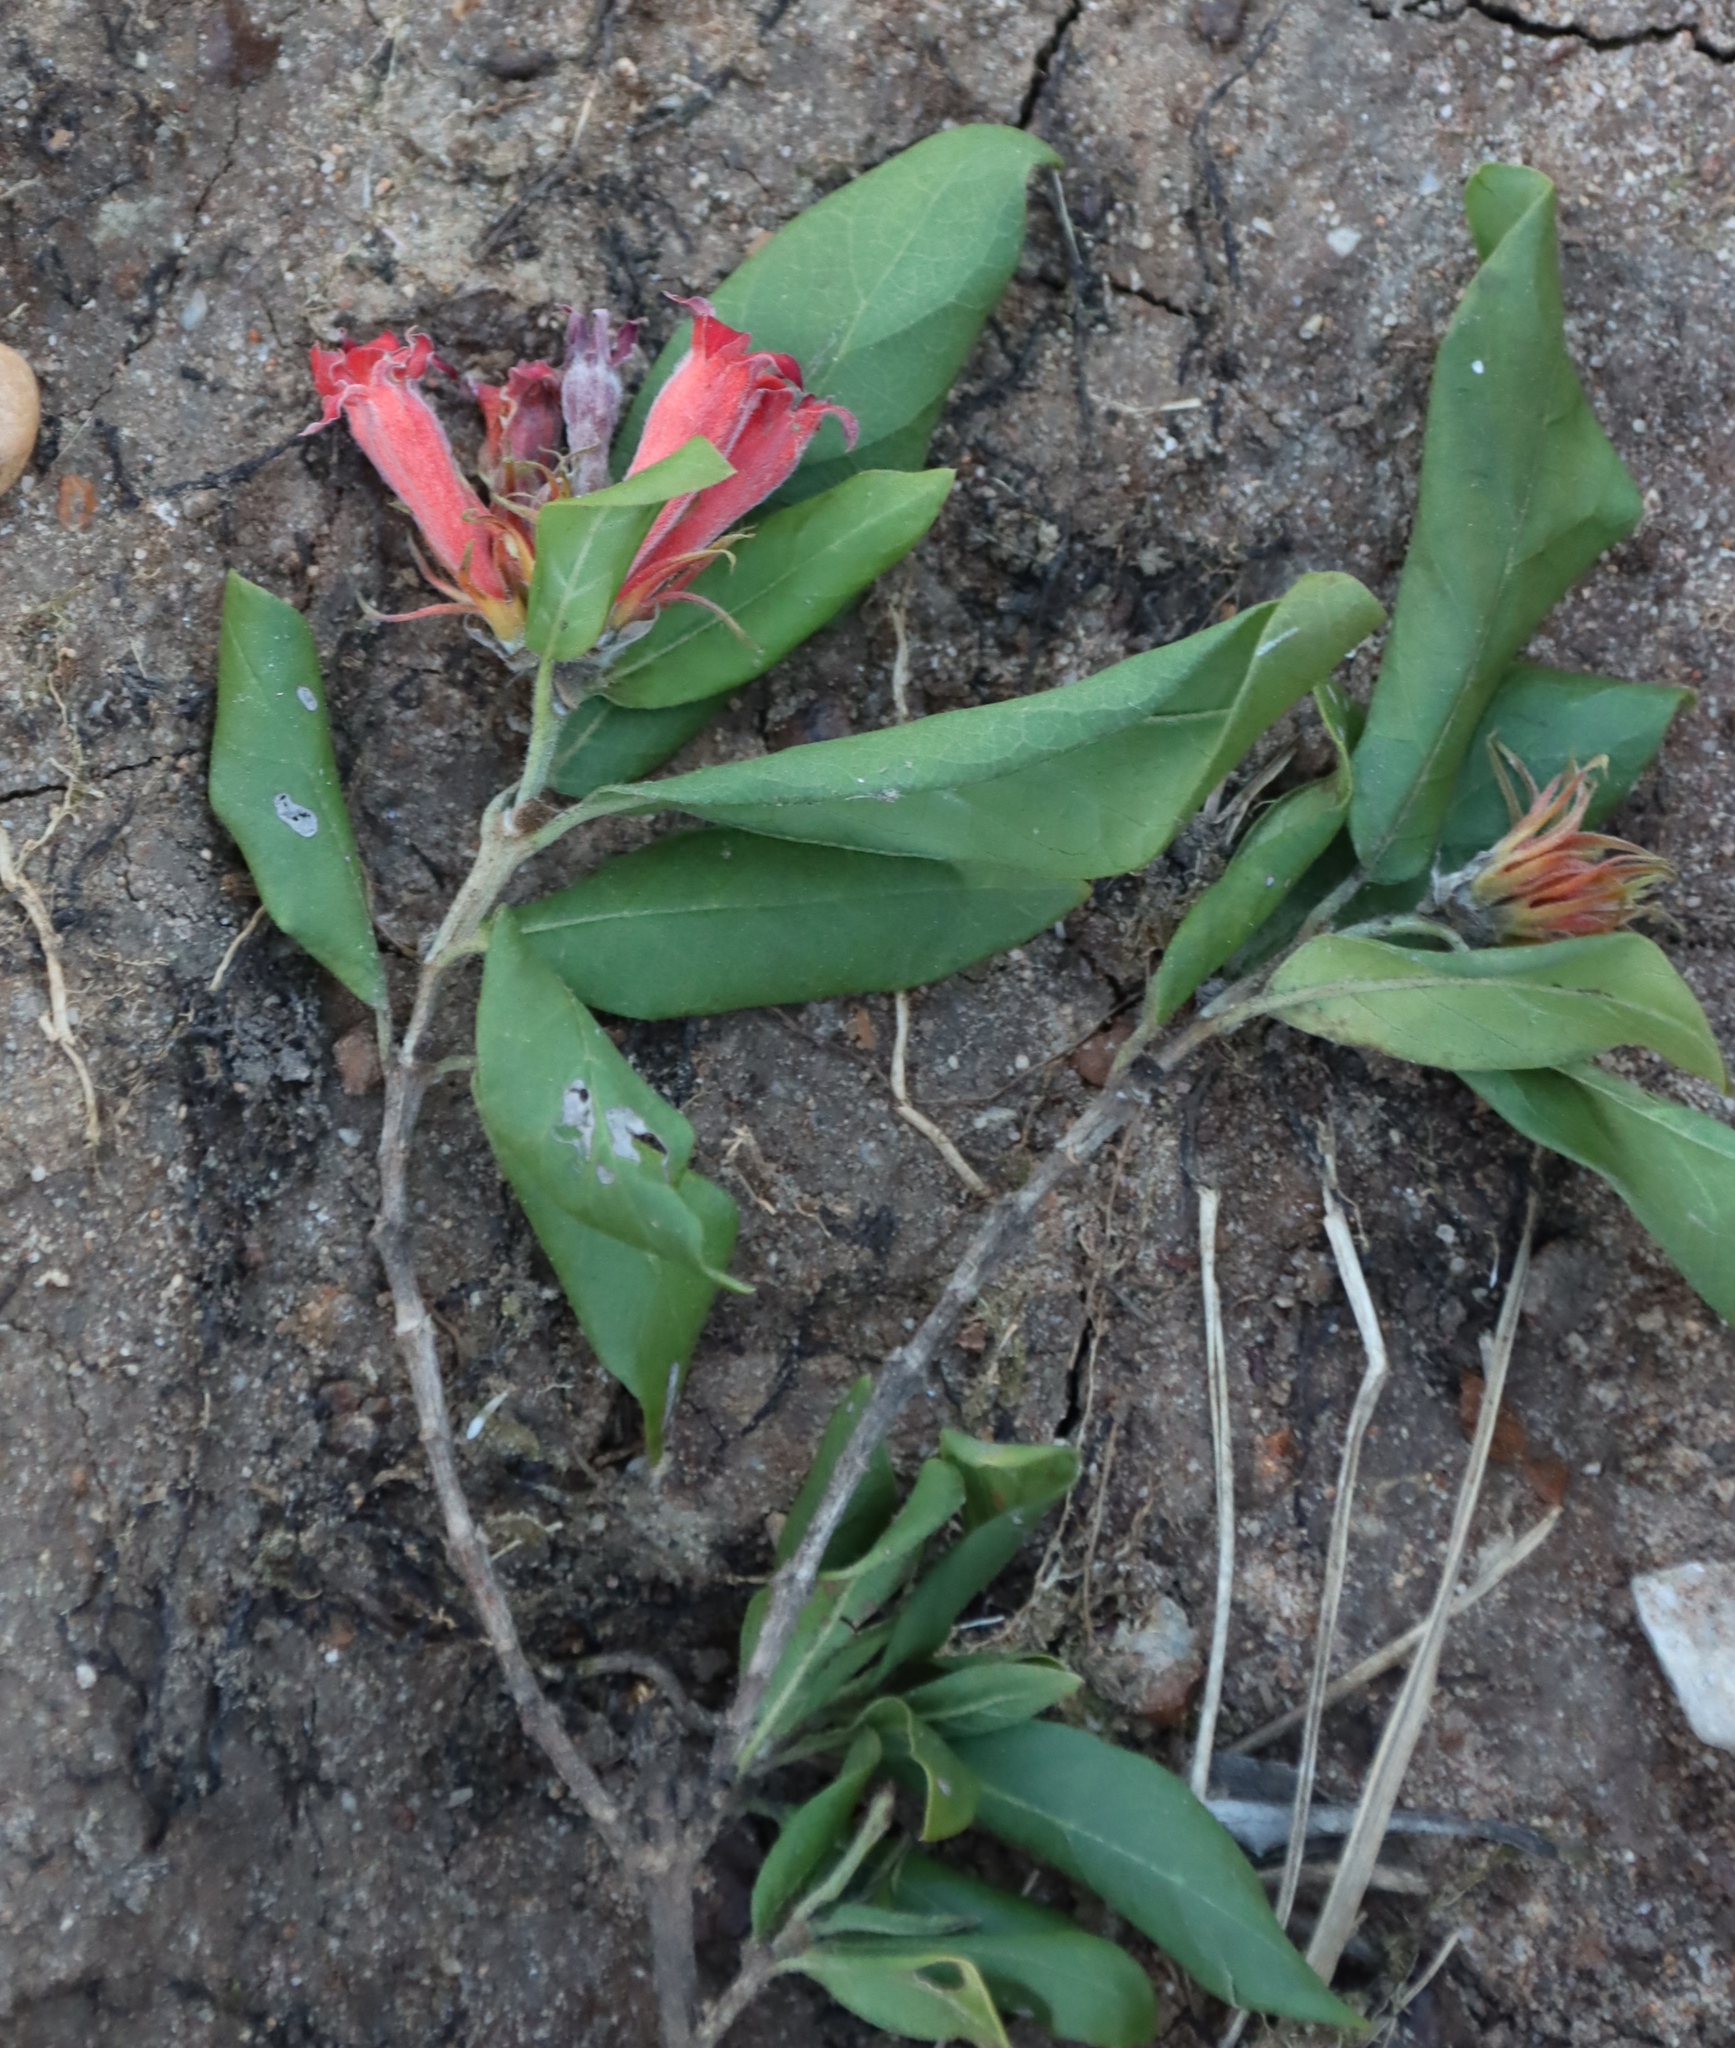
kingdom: Plantae
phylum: Tracheophyta
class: Magnoliopsida
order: Gentianales
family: Rubiaceae
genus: Burchellia
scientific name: Burchellia bubalina
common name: Wild pomegranate
